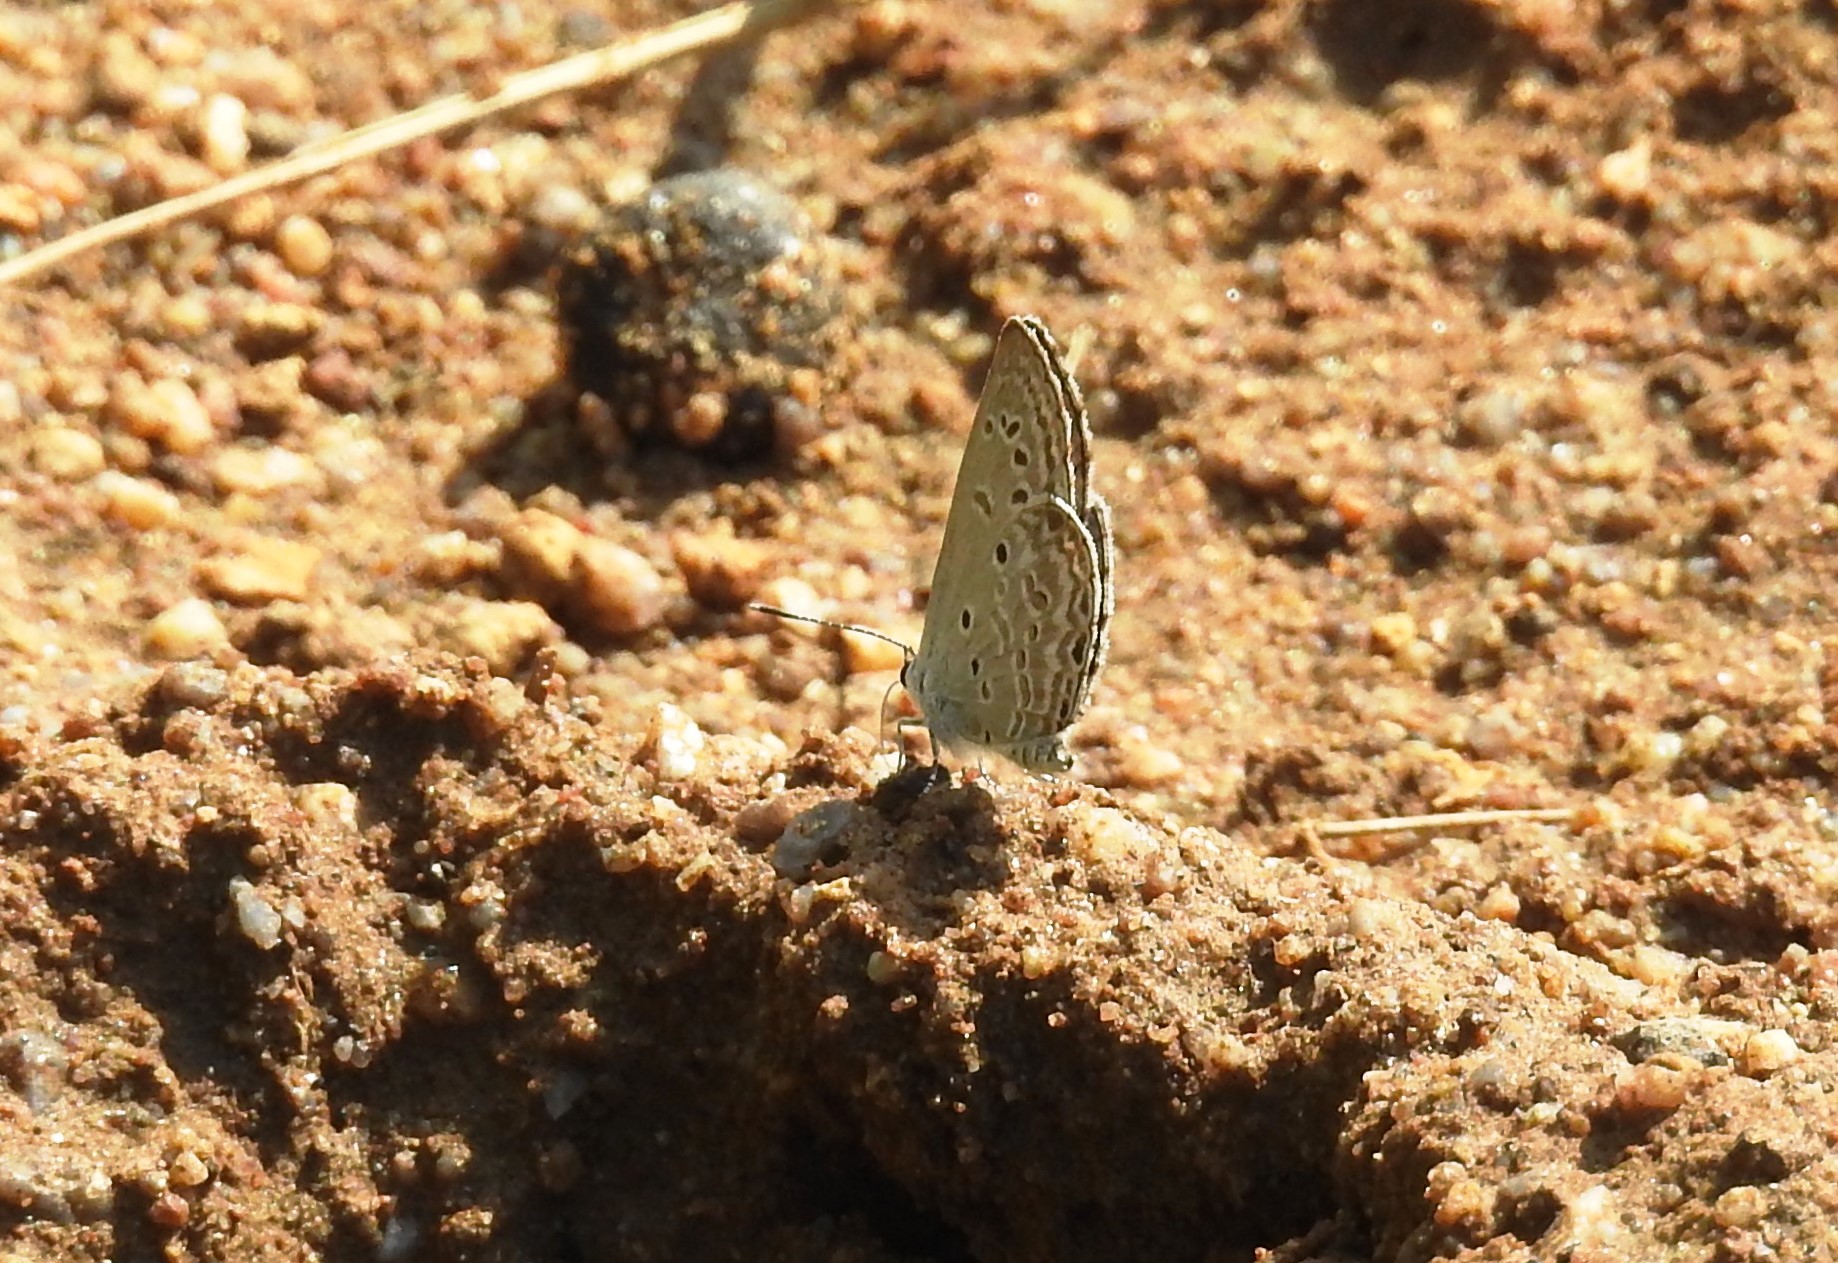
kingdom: Animalia
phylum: Arthropoda
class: Insecta
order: Lepidoptera
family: Lycaenidae
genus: Chilades
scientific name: Chilades laius
